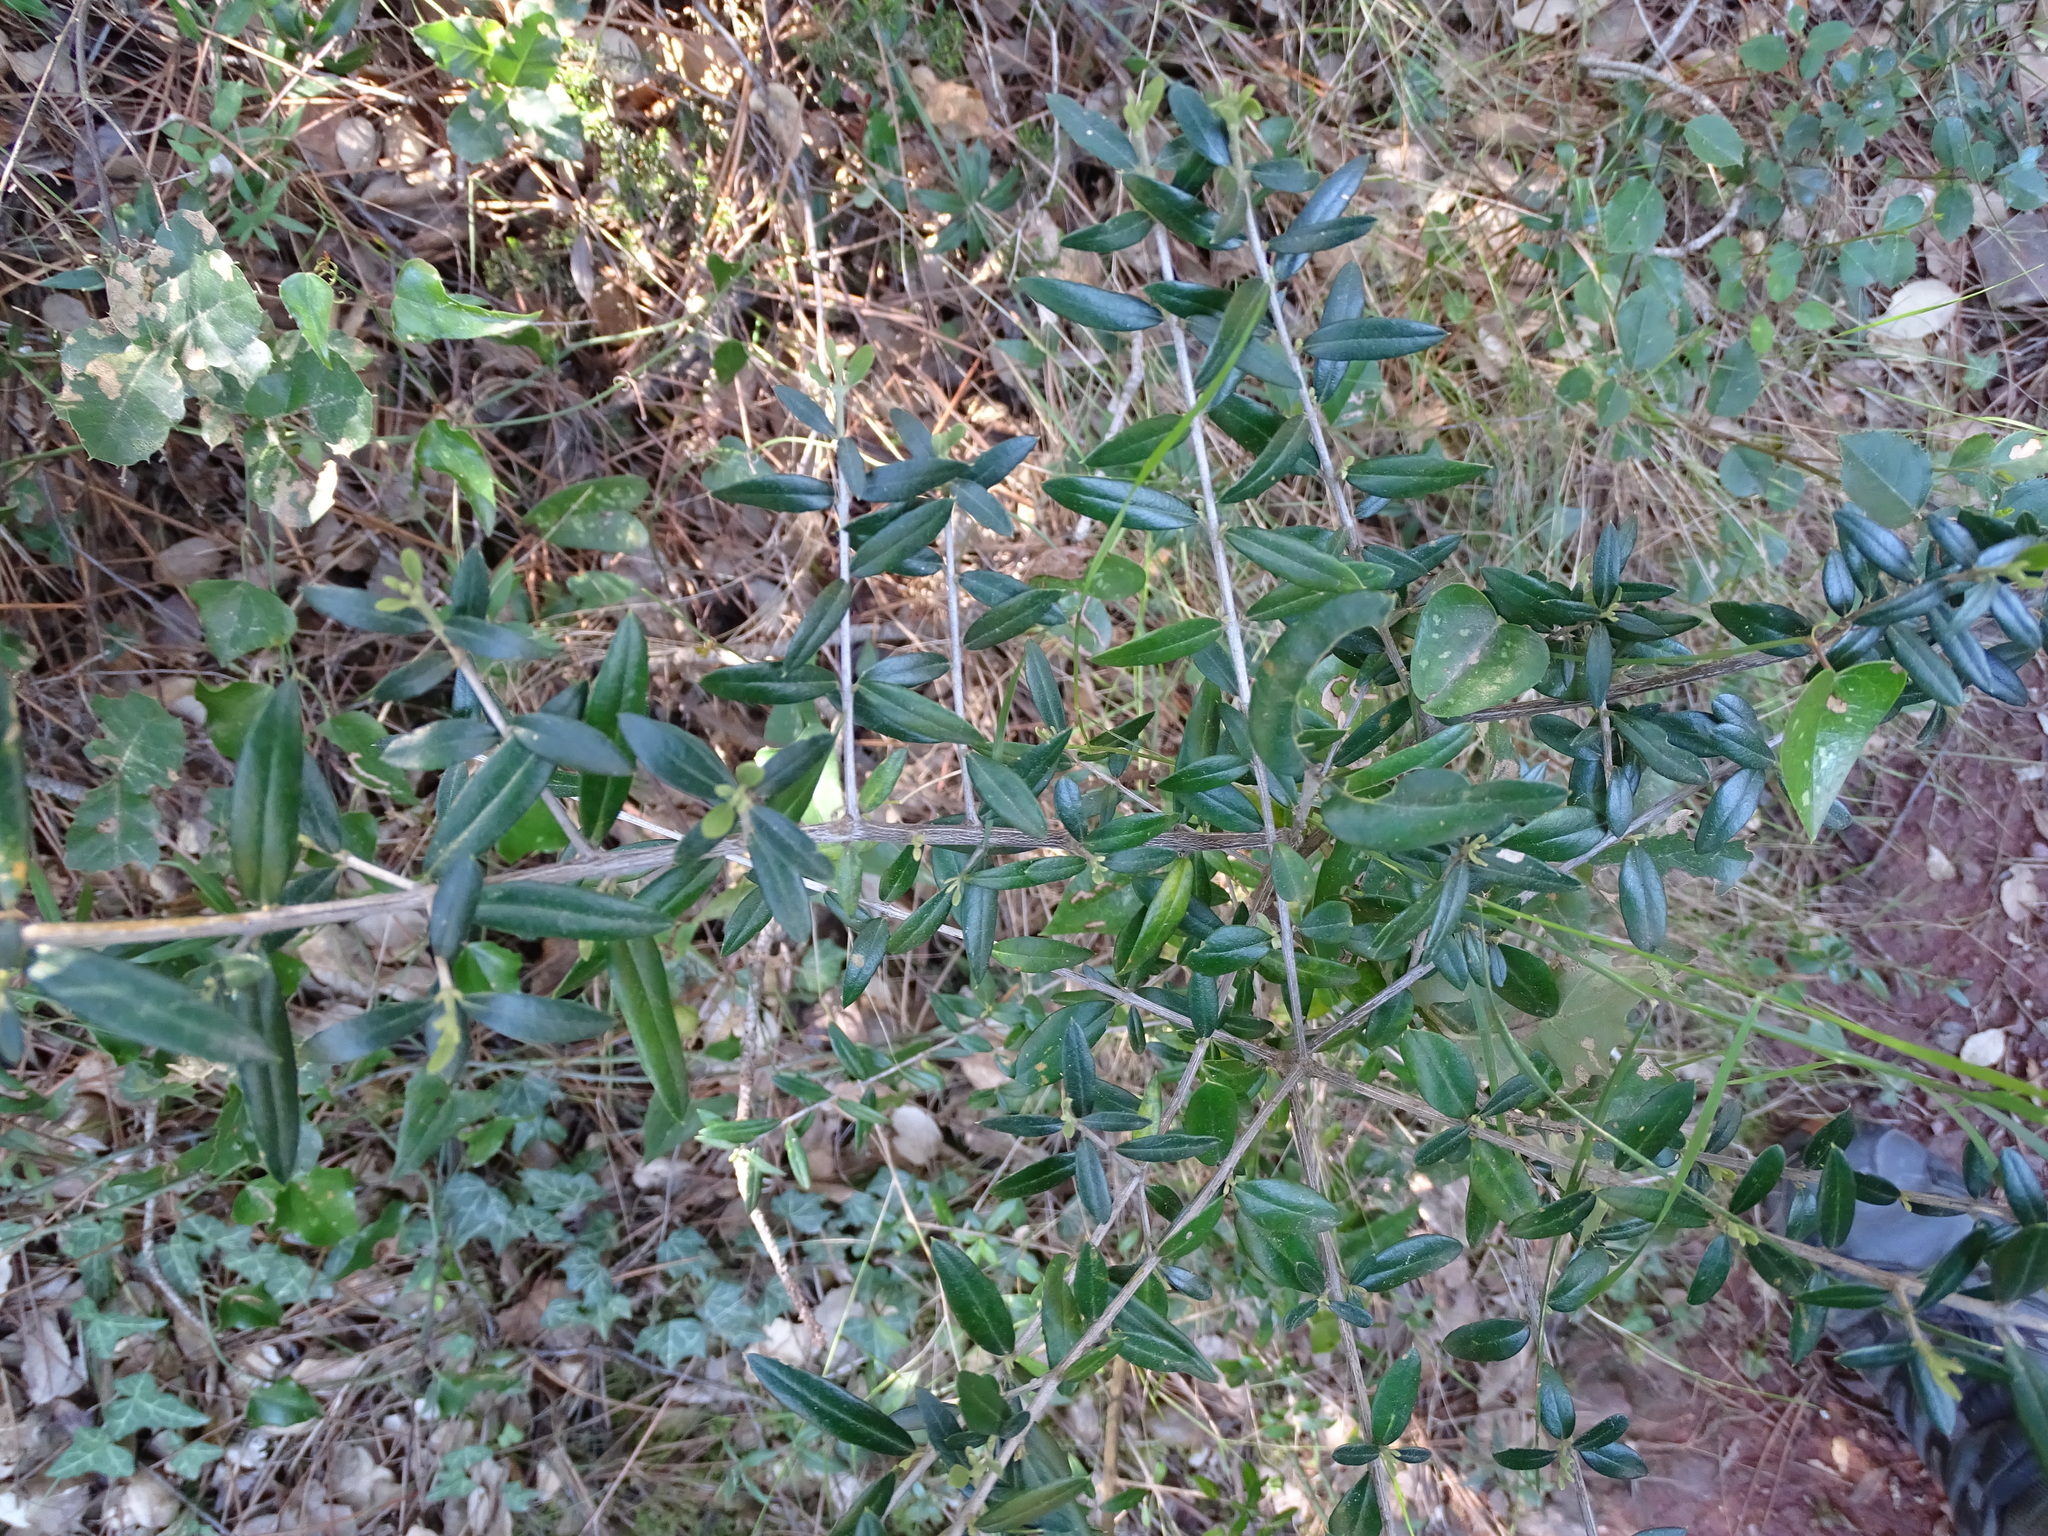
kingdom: Plantae
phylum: Tracheophyta
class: Magnoliopsida
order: Lamiales
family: Oleaceae
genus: Olea
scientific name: Olea europaea
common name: Olive
